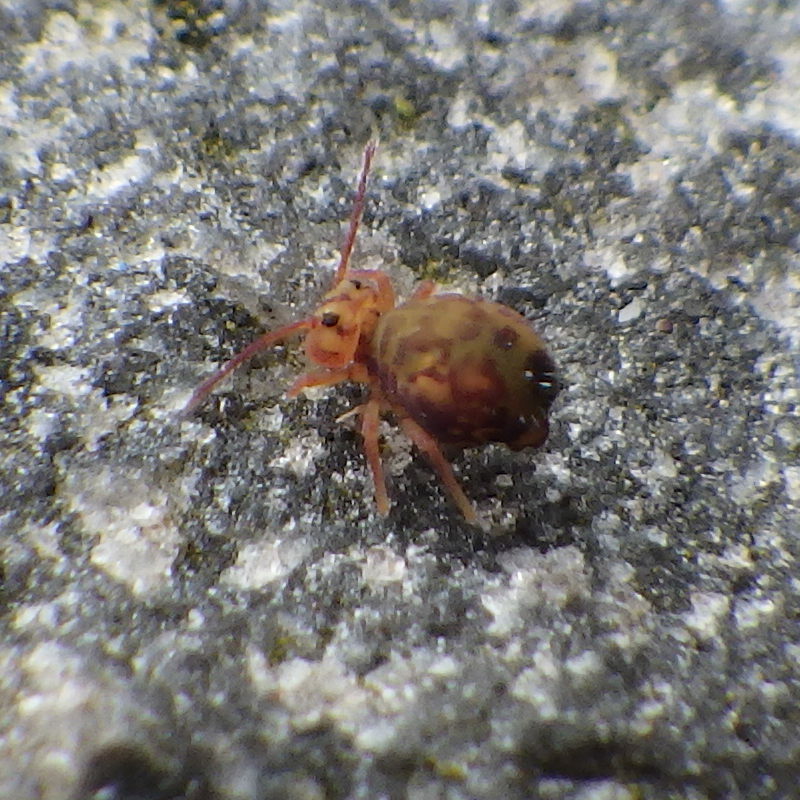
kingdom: Animalia
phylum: Arthropoda
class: Collembola
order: Symphypleona
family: Dicyrtomidae
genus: Dicyrtomina
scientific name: Dicyrtomina minuta
